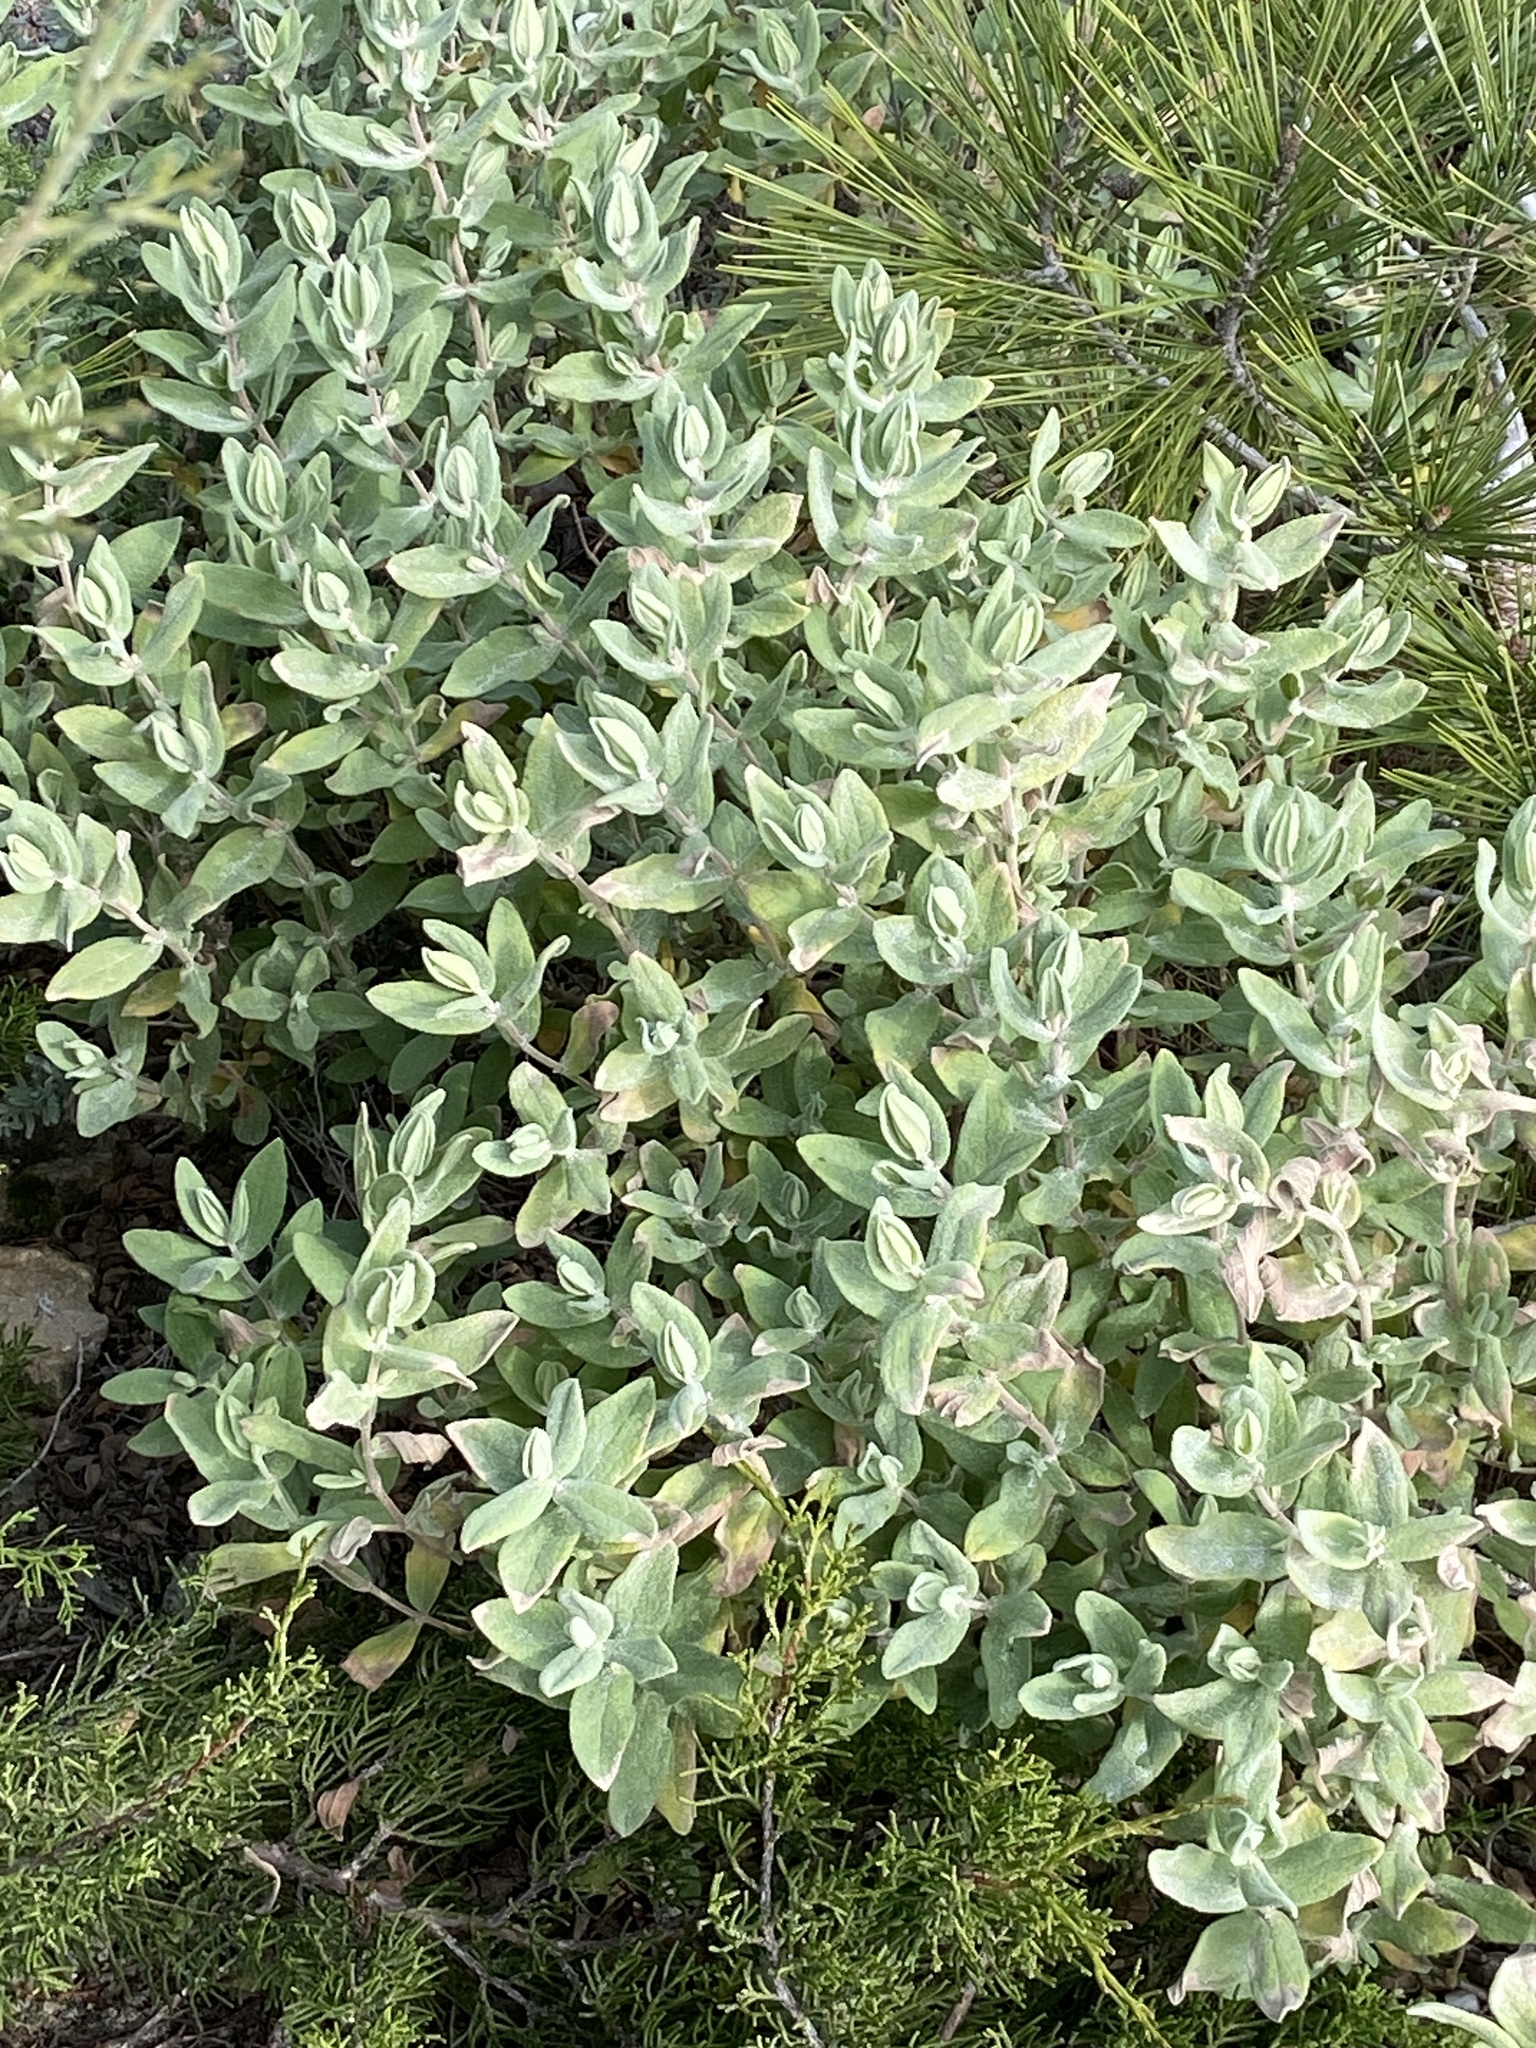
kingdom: Plantae
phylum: Tracheophyta
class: Magnoliopsida
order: Malvales
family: Cistaceae
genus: Cistus
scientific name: Cistus albidus
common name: White-leaf rock-rose
